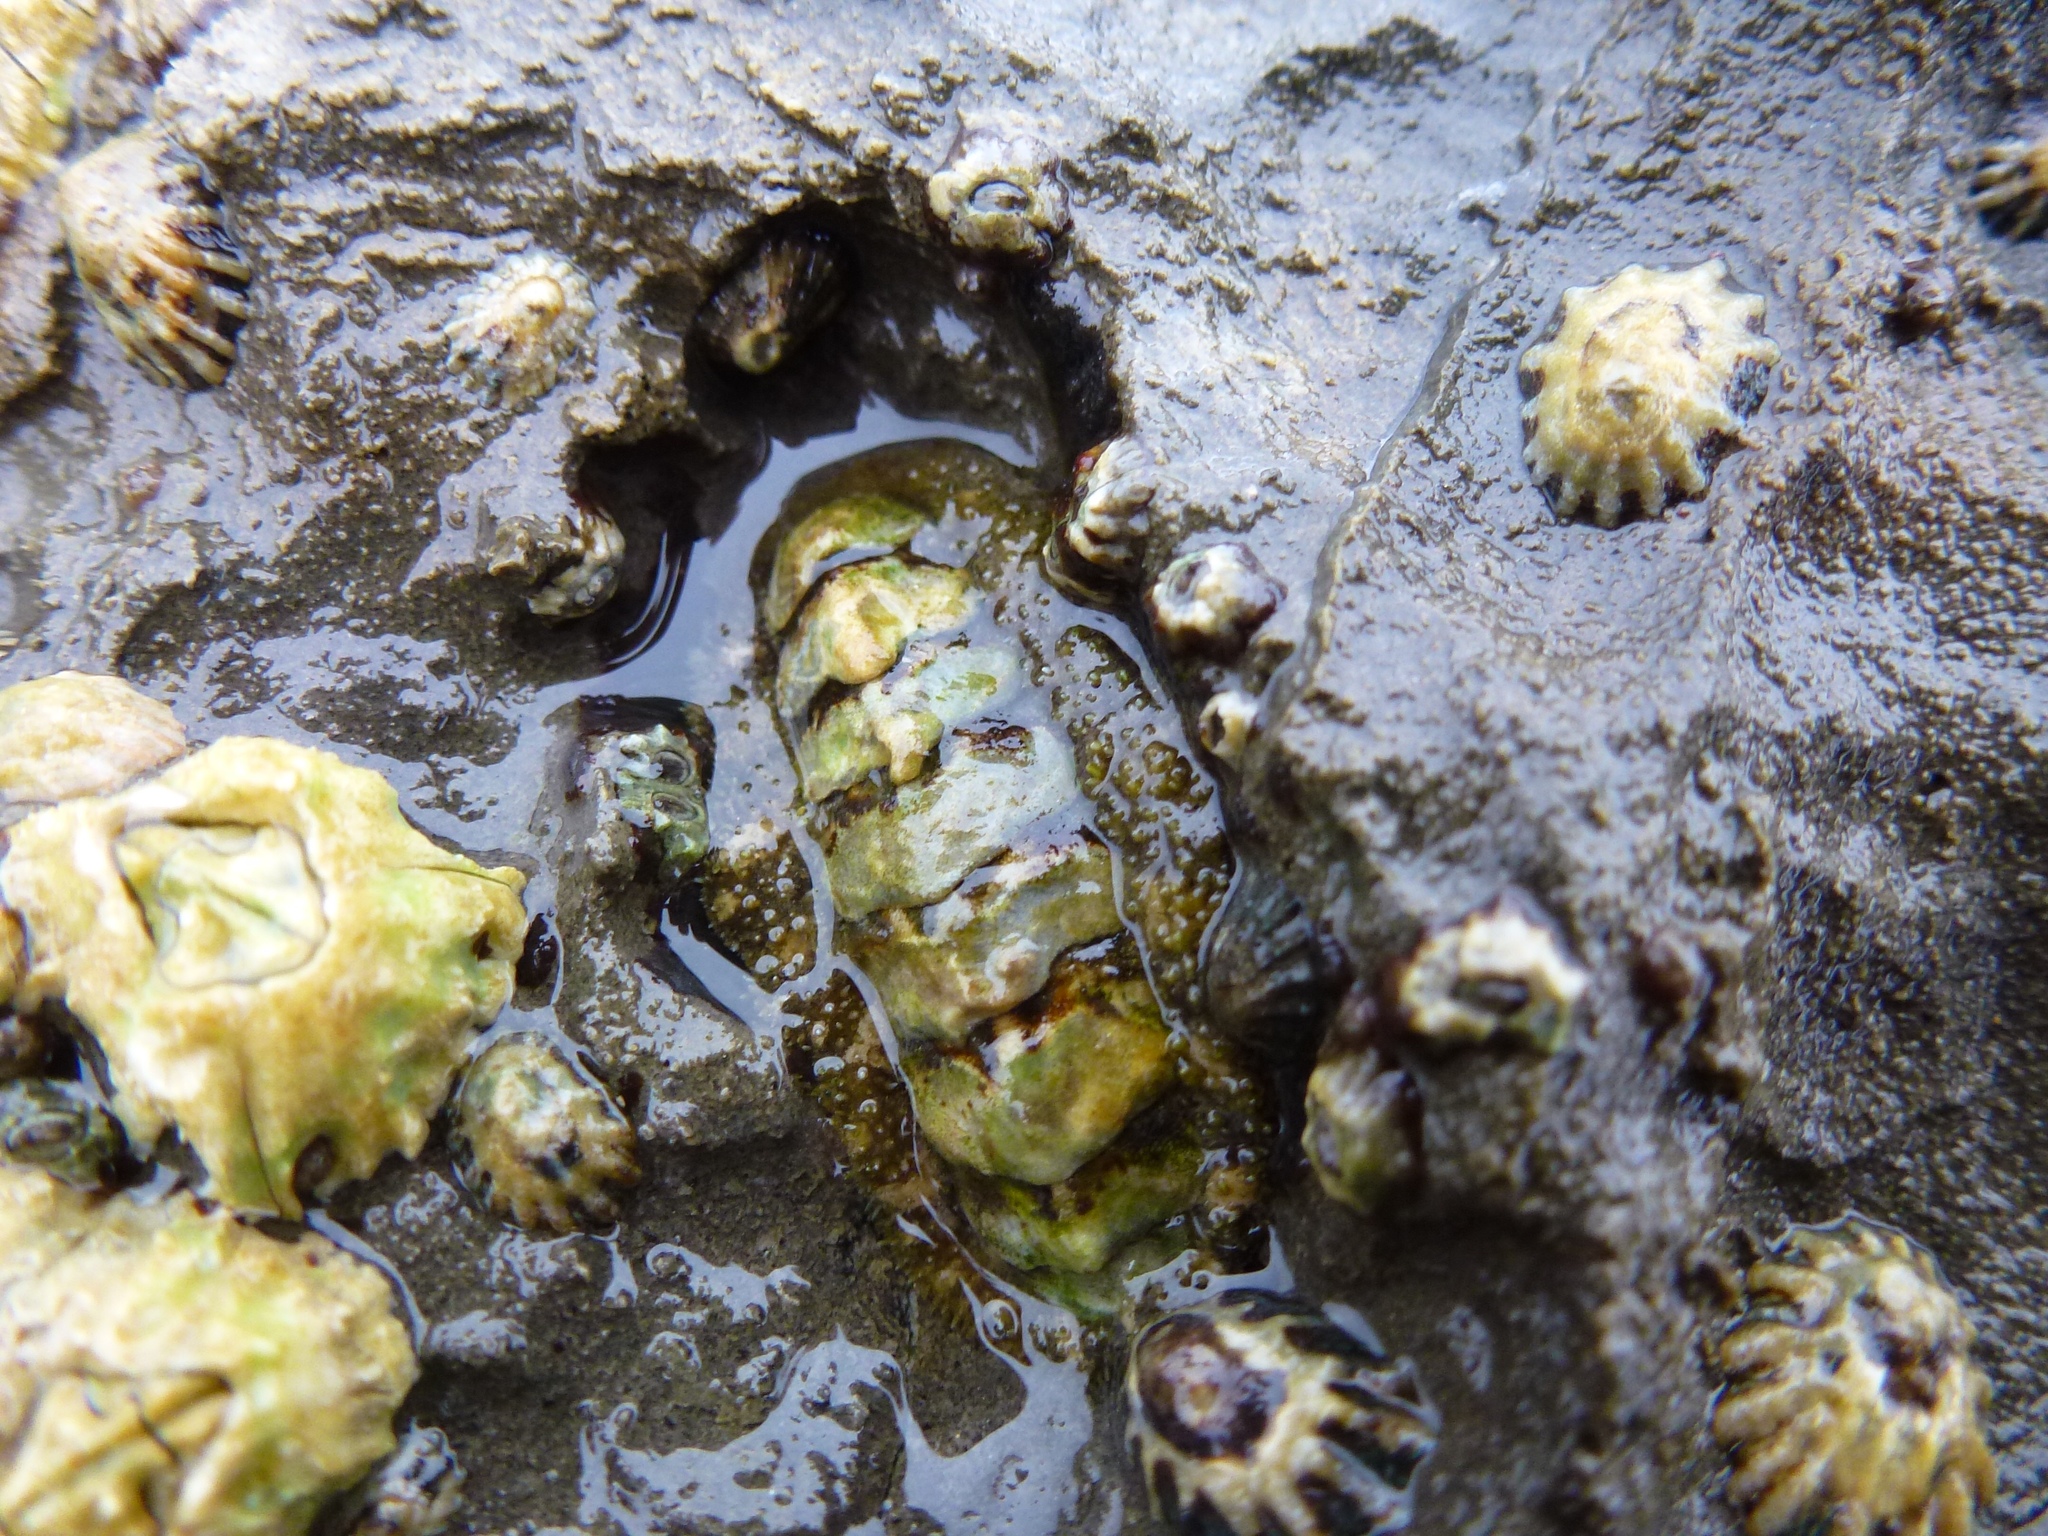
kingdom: Animalia
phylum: Mollusca
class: Polyplacophora
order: Chitonida
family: Tonicellidae
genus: Nuttallina
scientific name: Nuttallina californica
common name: California nuttall chiton
